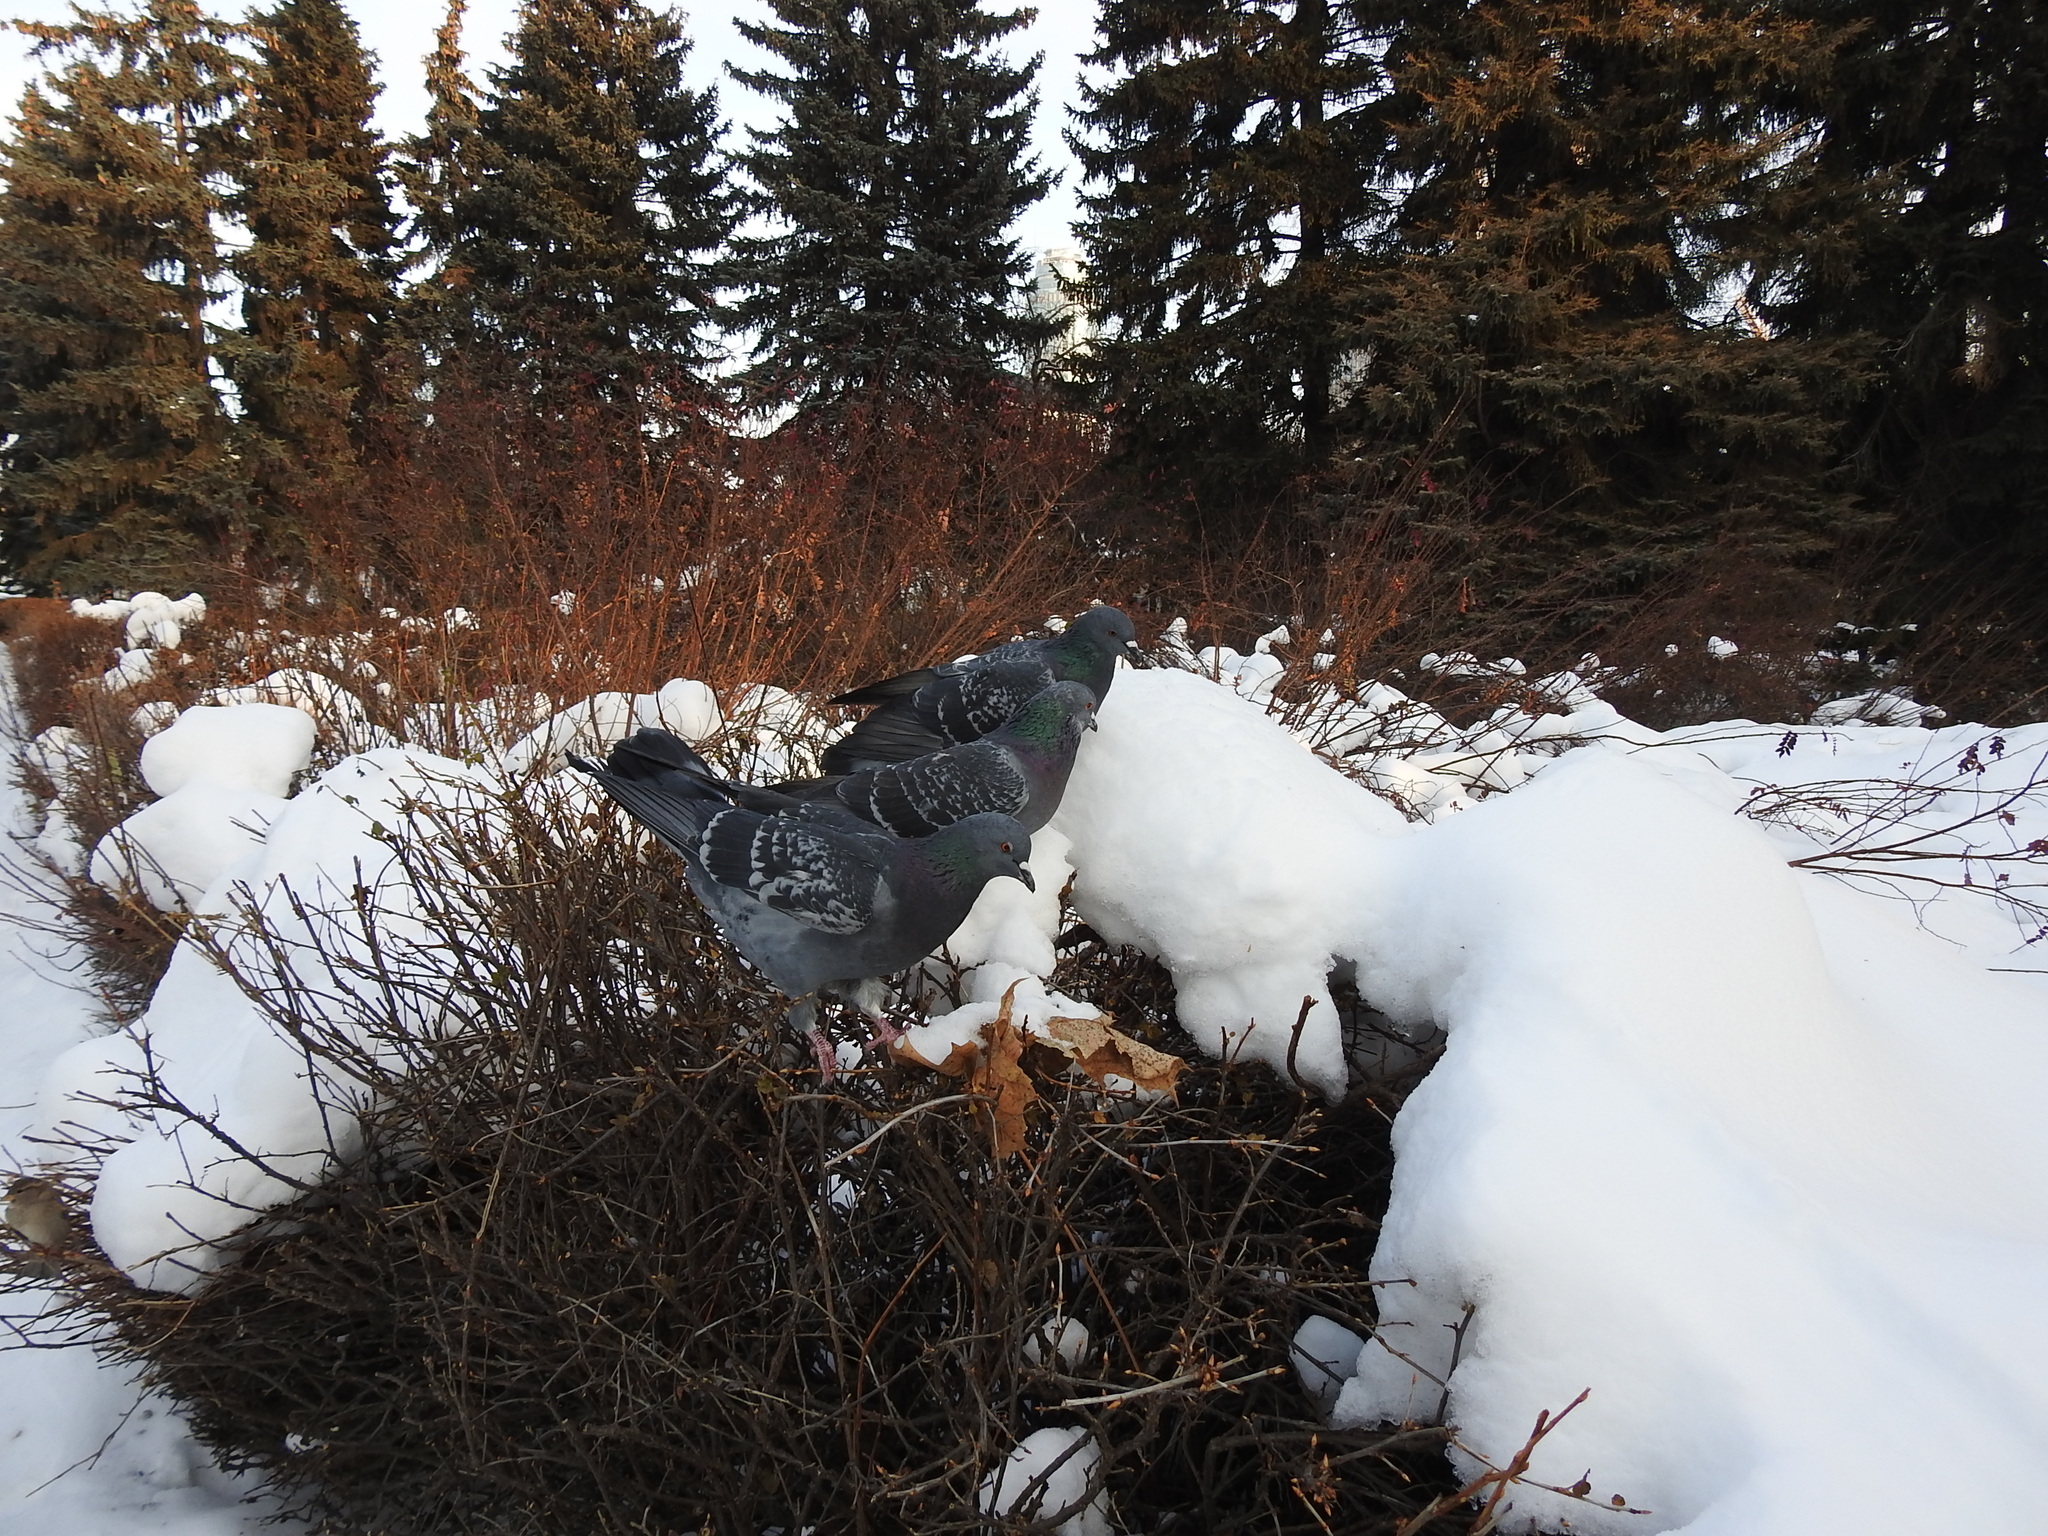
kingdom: Animalia
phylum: Chordata
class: Aves
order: Columbiformes
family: Columbidae
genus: Columba
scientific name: Columba livia
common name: Rock pigeon
